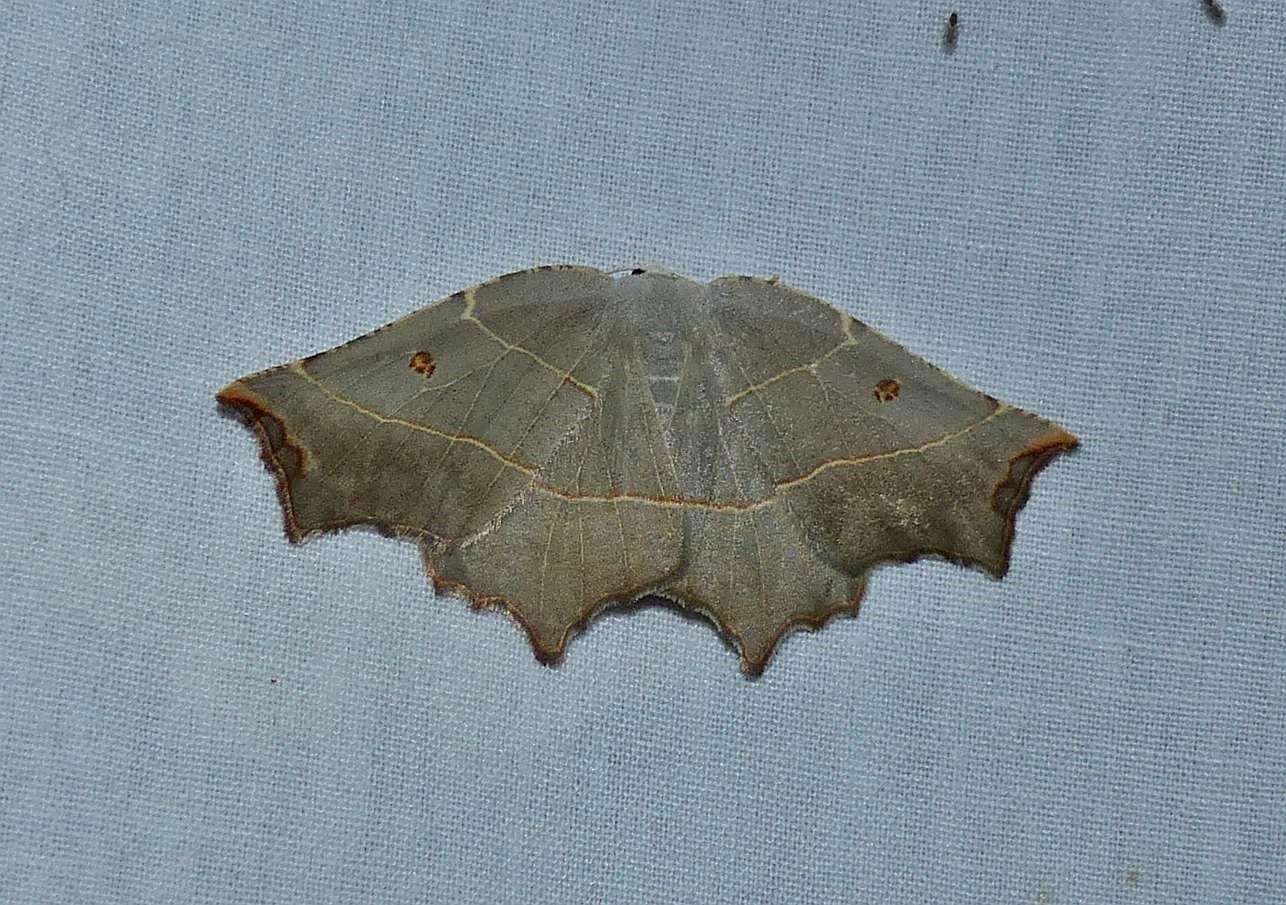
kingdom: Animalia
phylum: Arthropoda
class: Insecta
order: Lepidoptera
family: Geometridae
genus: Metanema
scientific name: Metanema inatomaria
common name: Pale metanema
